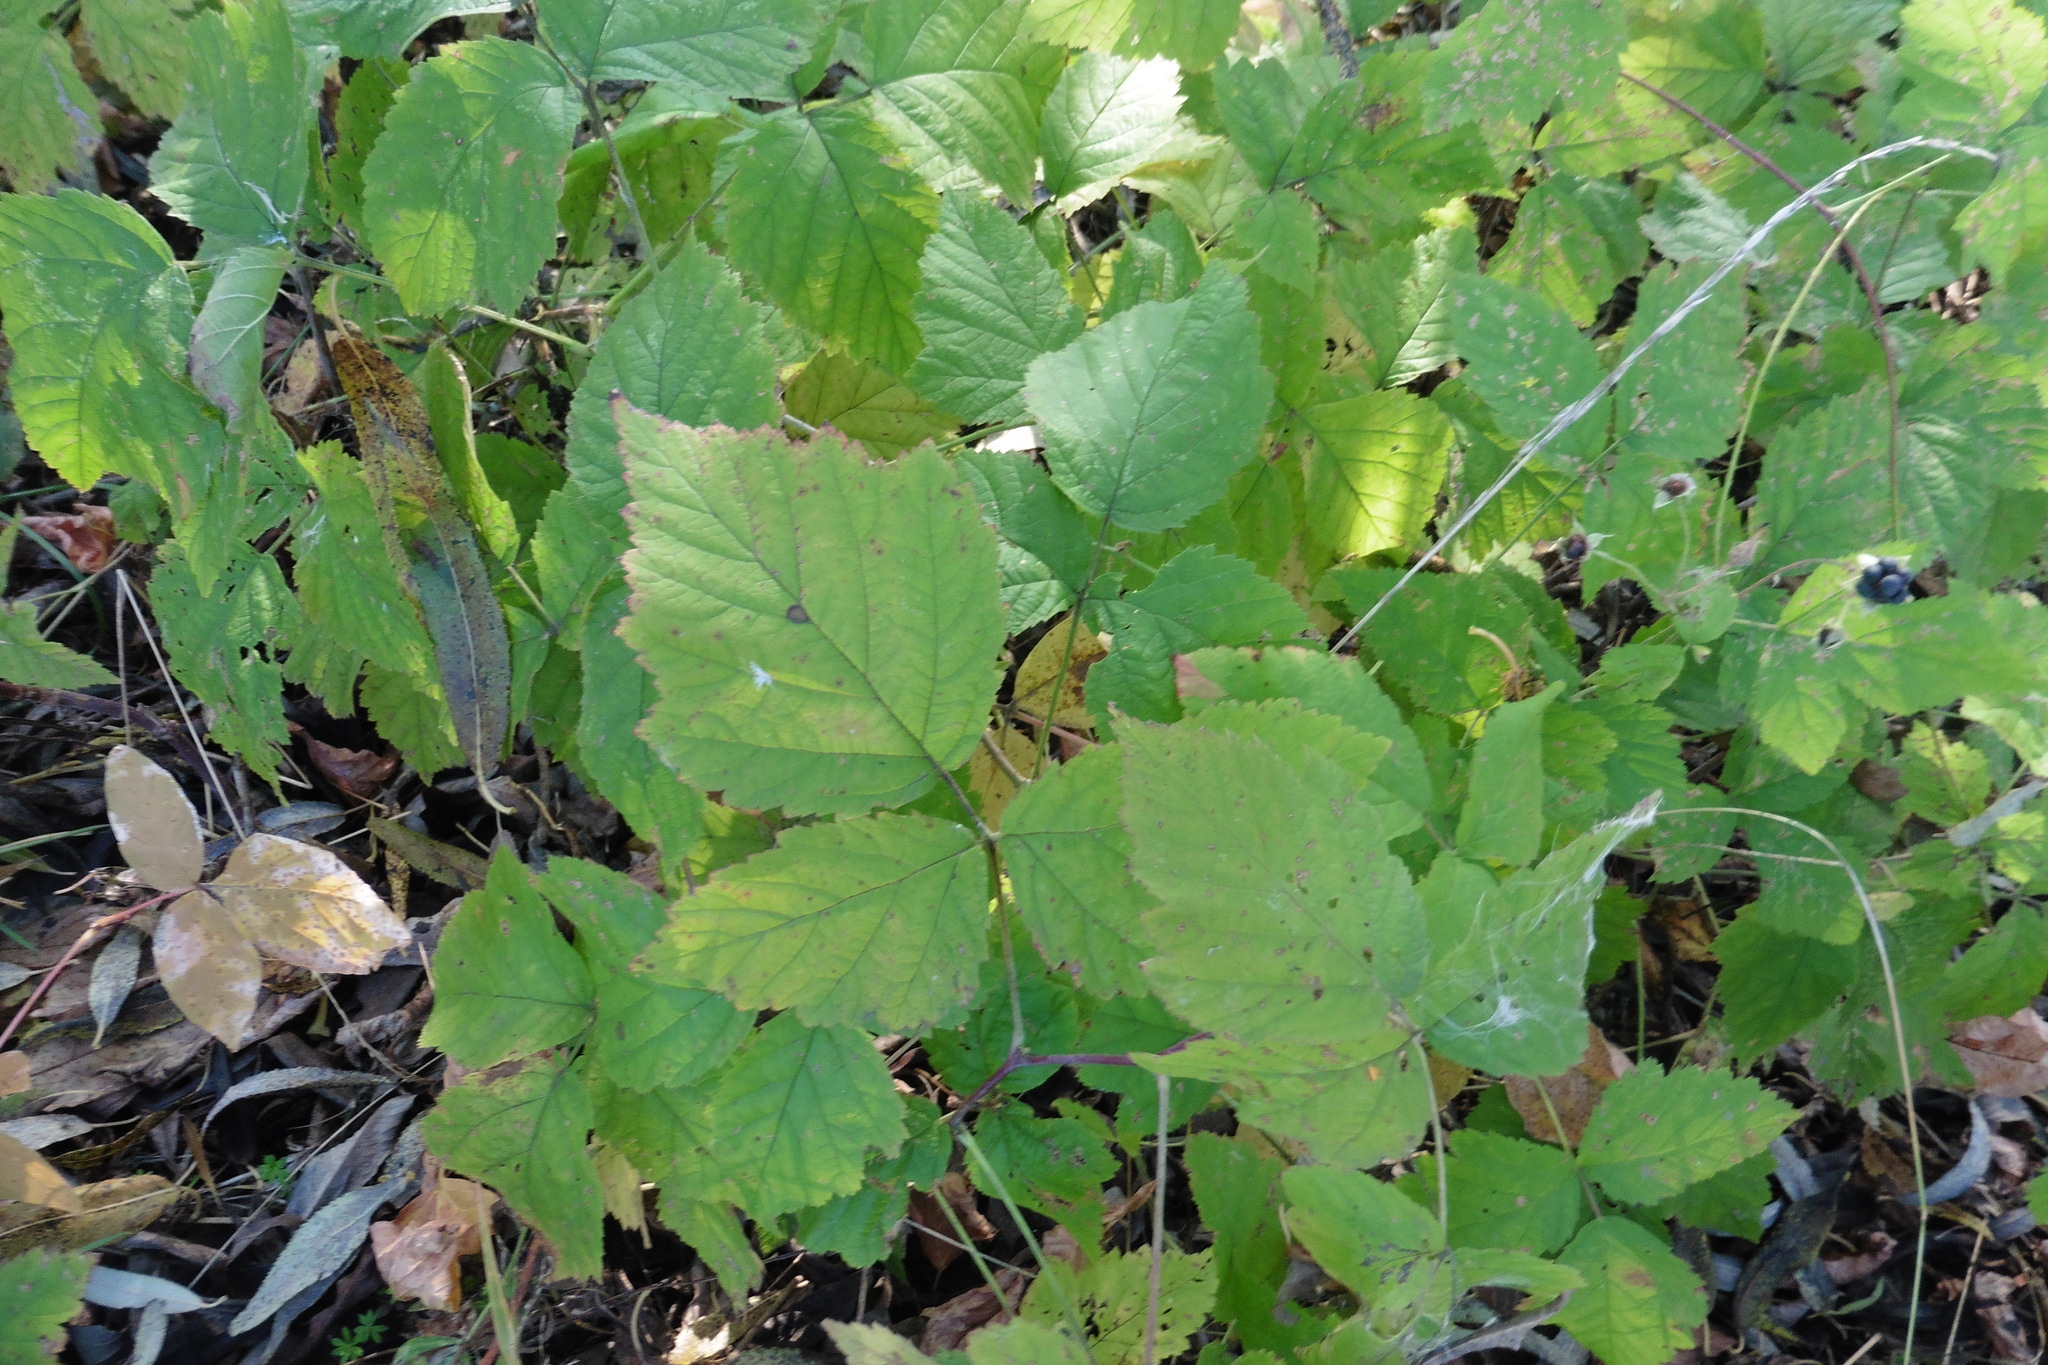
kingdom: Plantae
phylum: Tracheophyta
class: Magnoliopsida
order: Rosales
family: Rosaceae
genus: Rubus
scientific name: Rubus caesius
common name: Dewberry
